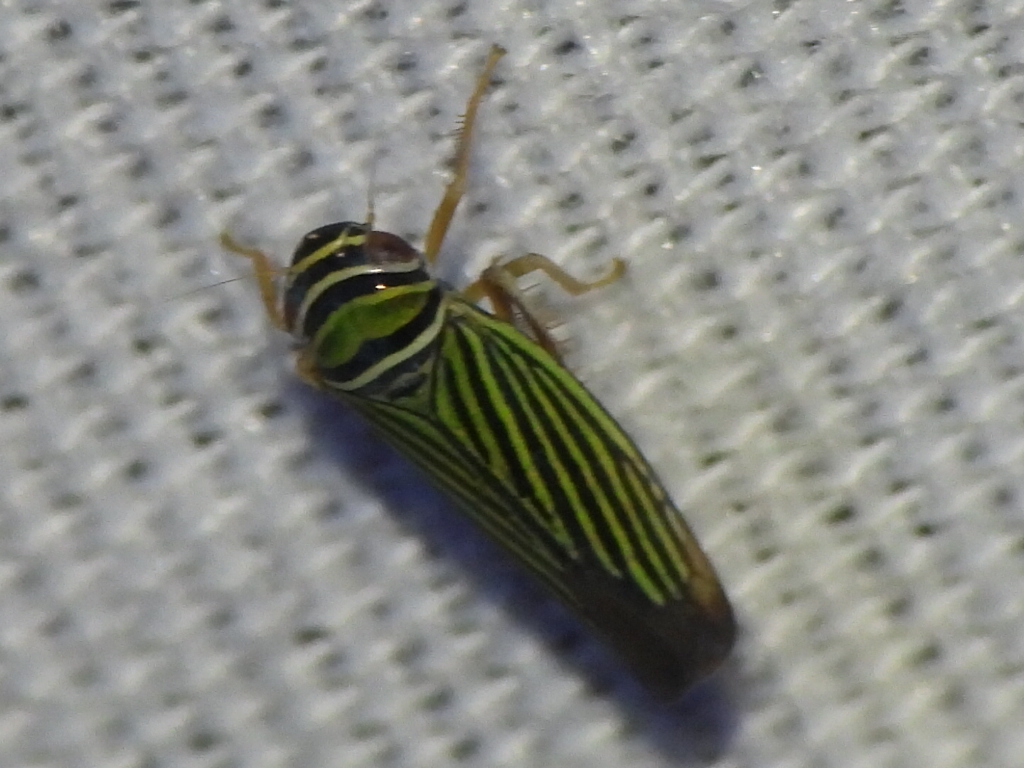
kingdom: Animalia
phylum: Arthropoda
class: Insecta
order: Hemiptera
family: Cicadellidae
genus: Tylozygus
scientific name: Tylozygus bifidus
